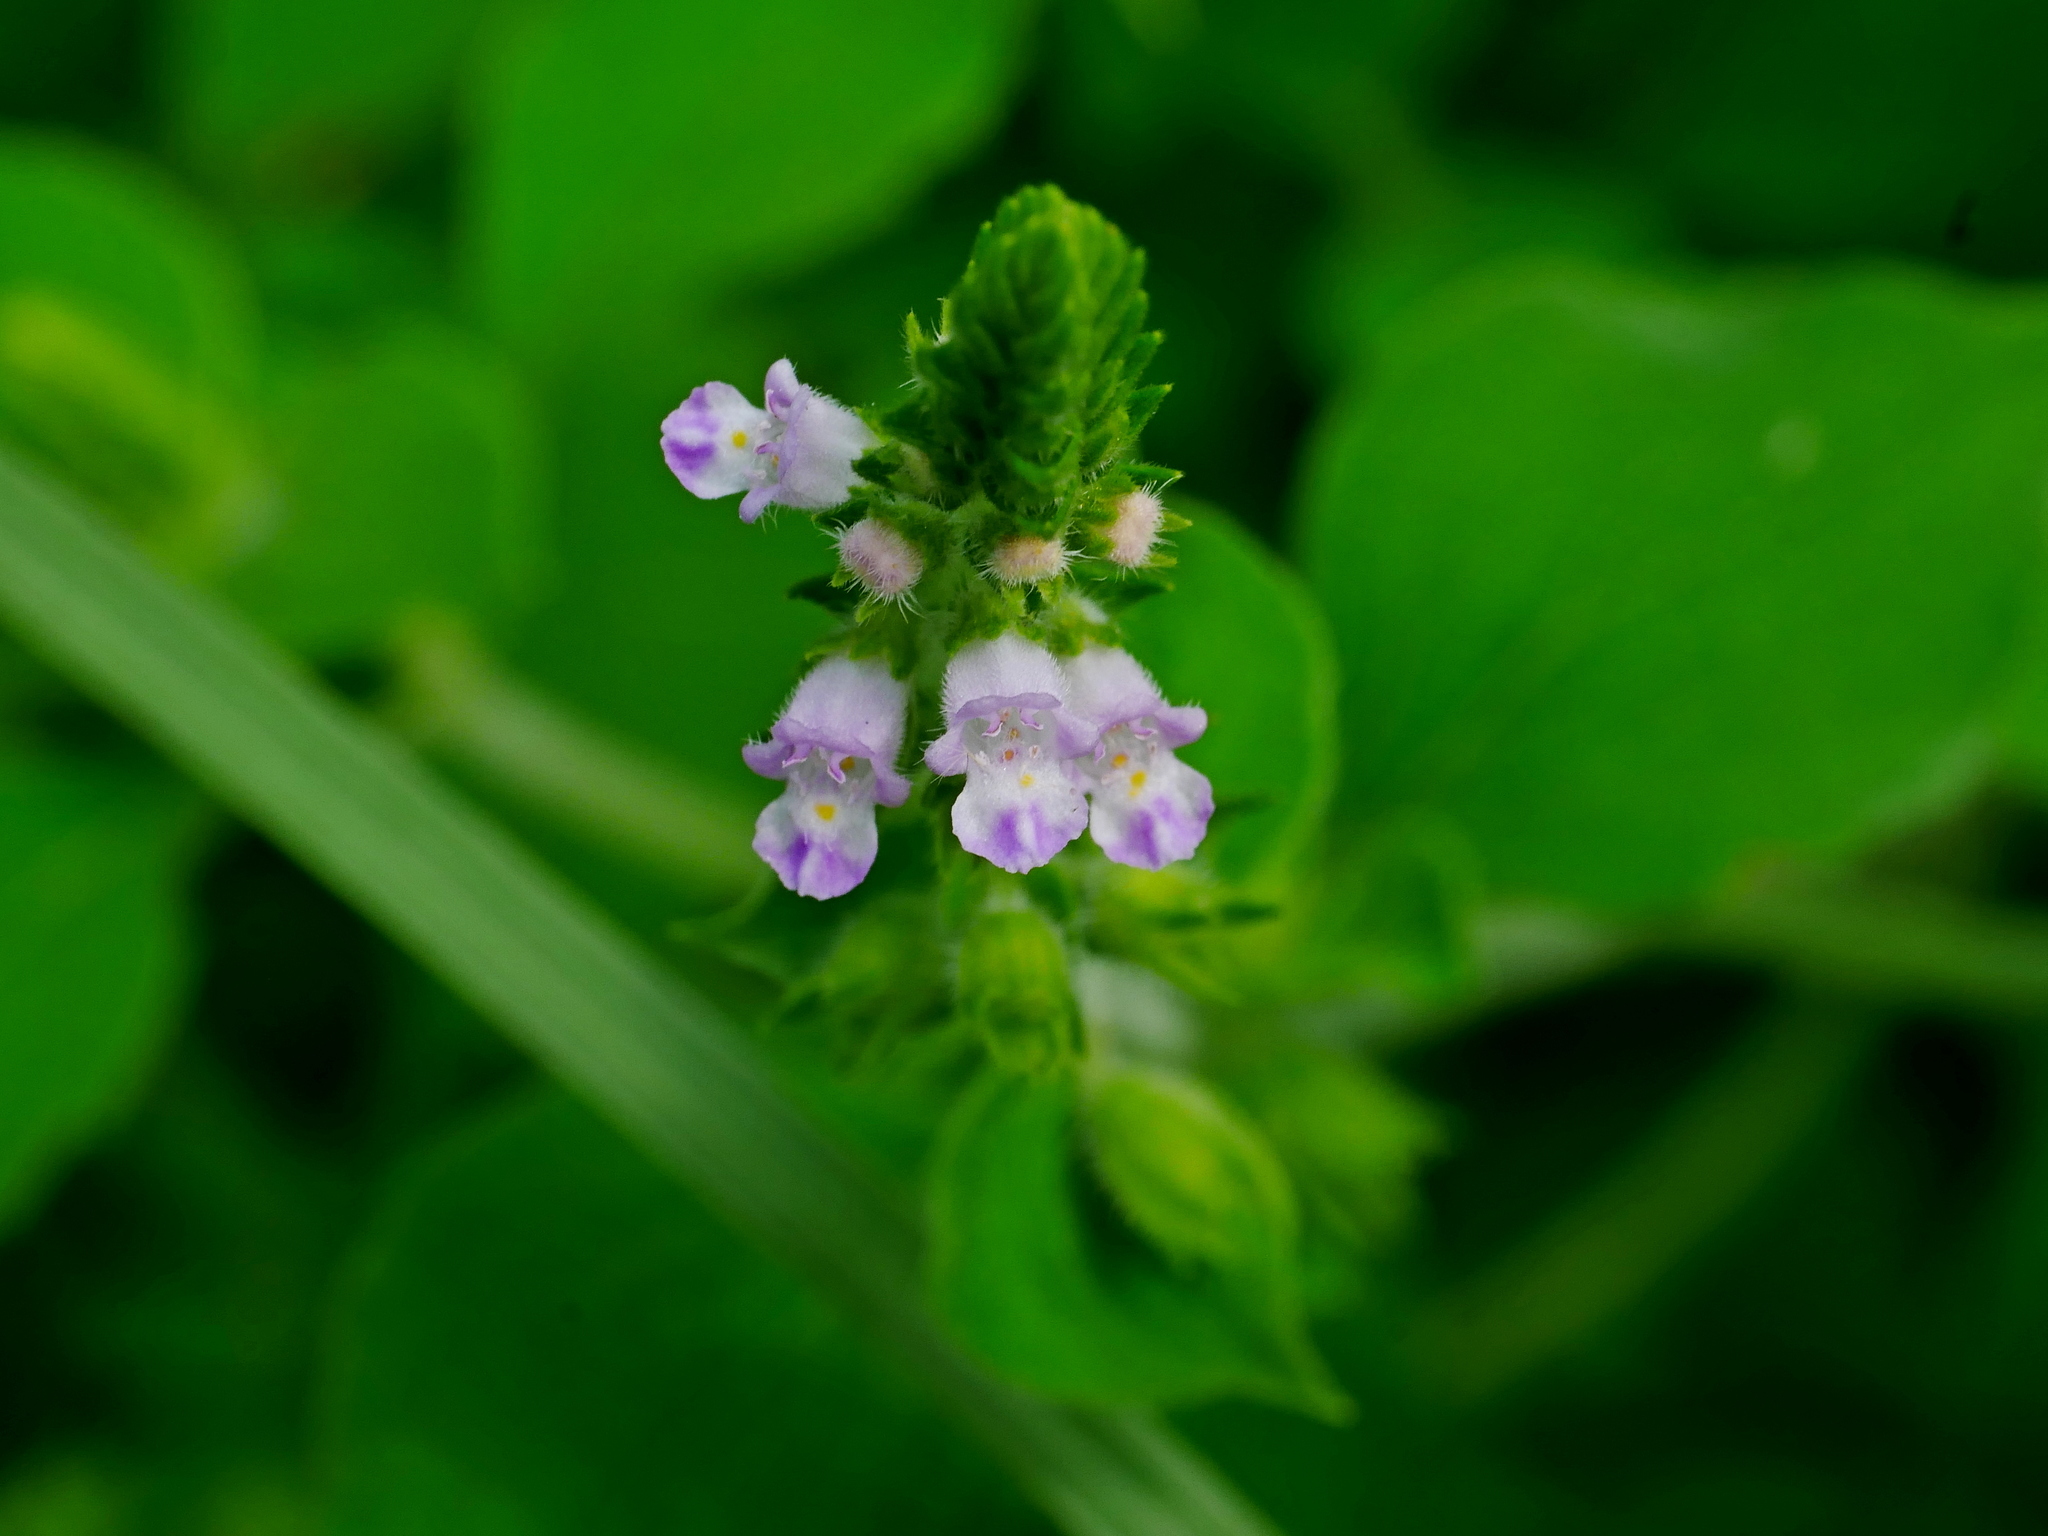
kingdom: Plantae
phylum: Tracheophyta
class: Magnoliopsida
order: Lamiales
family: Lamiaceae
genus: Mosla
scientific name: Mosla scabra
